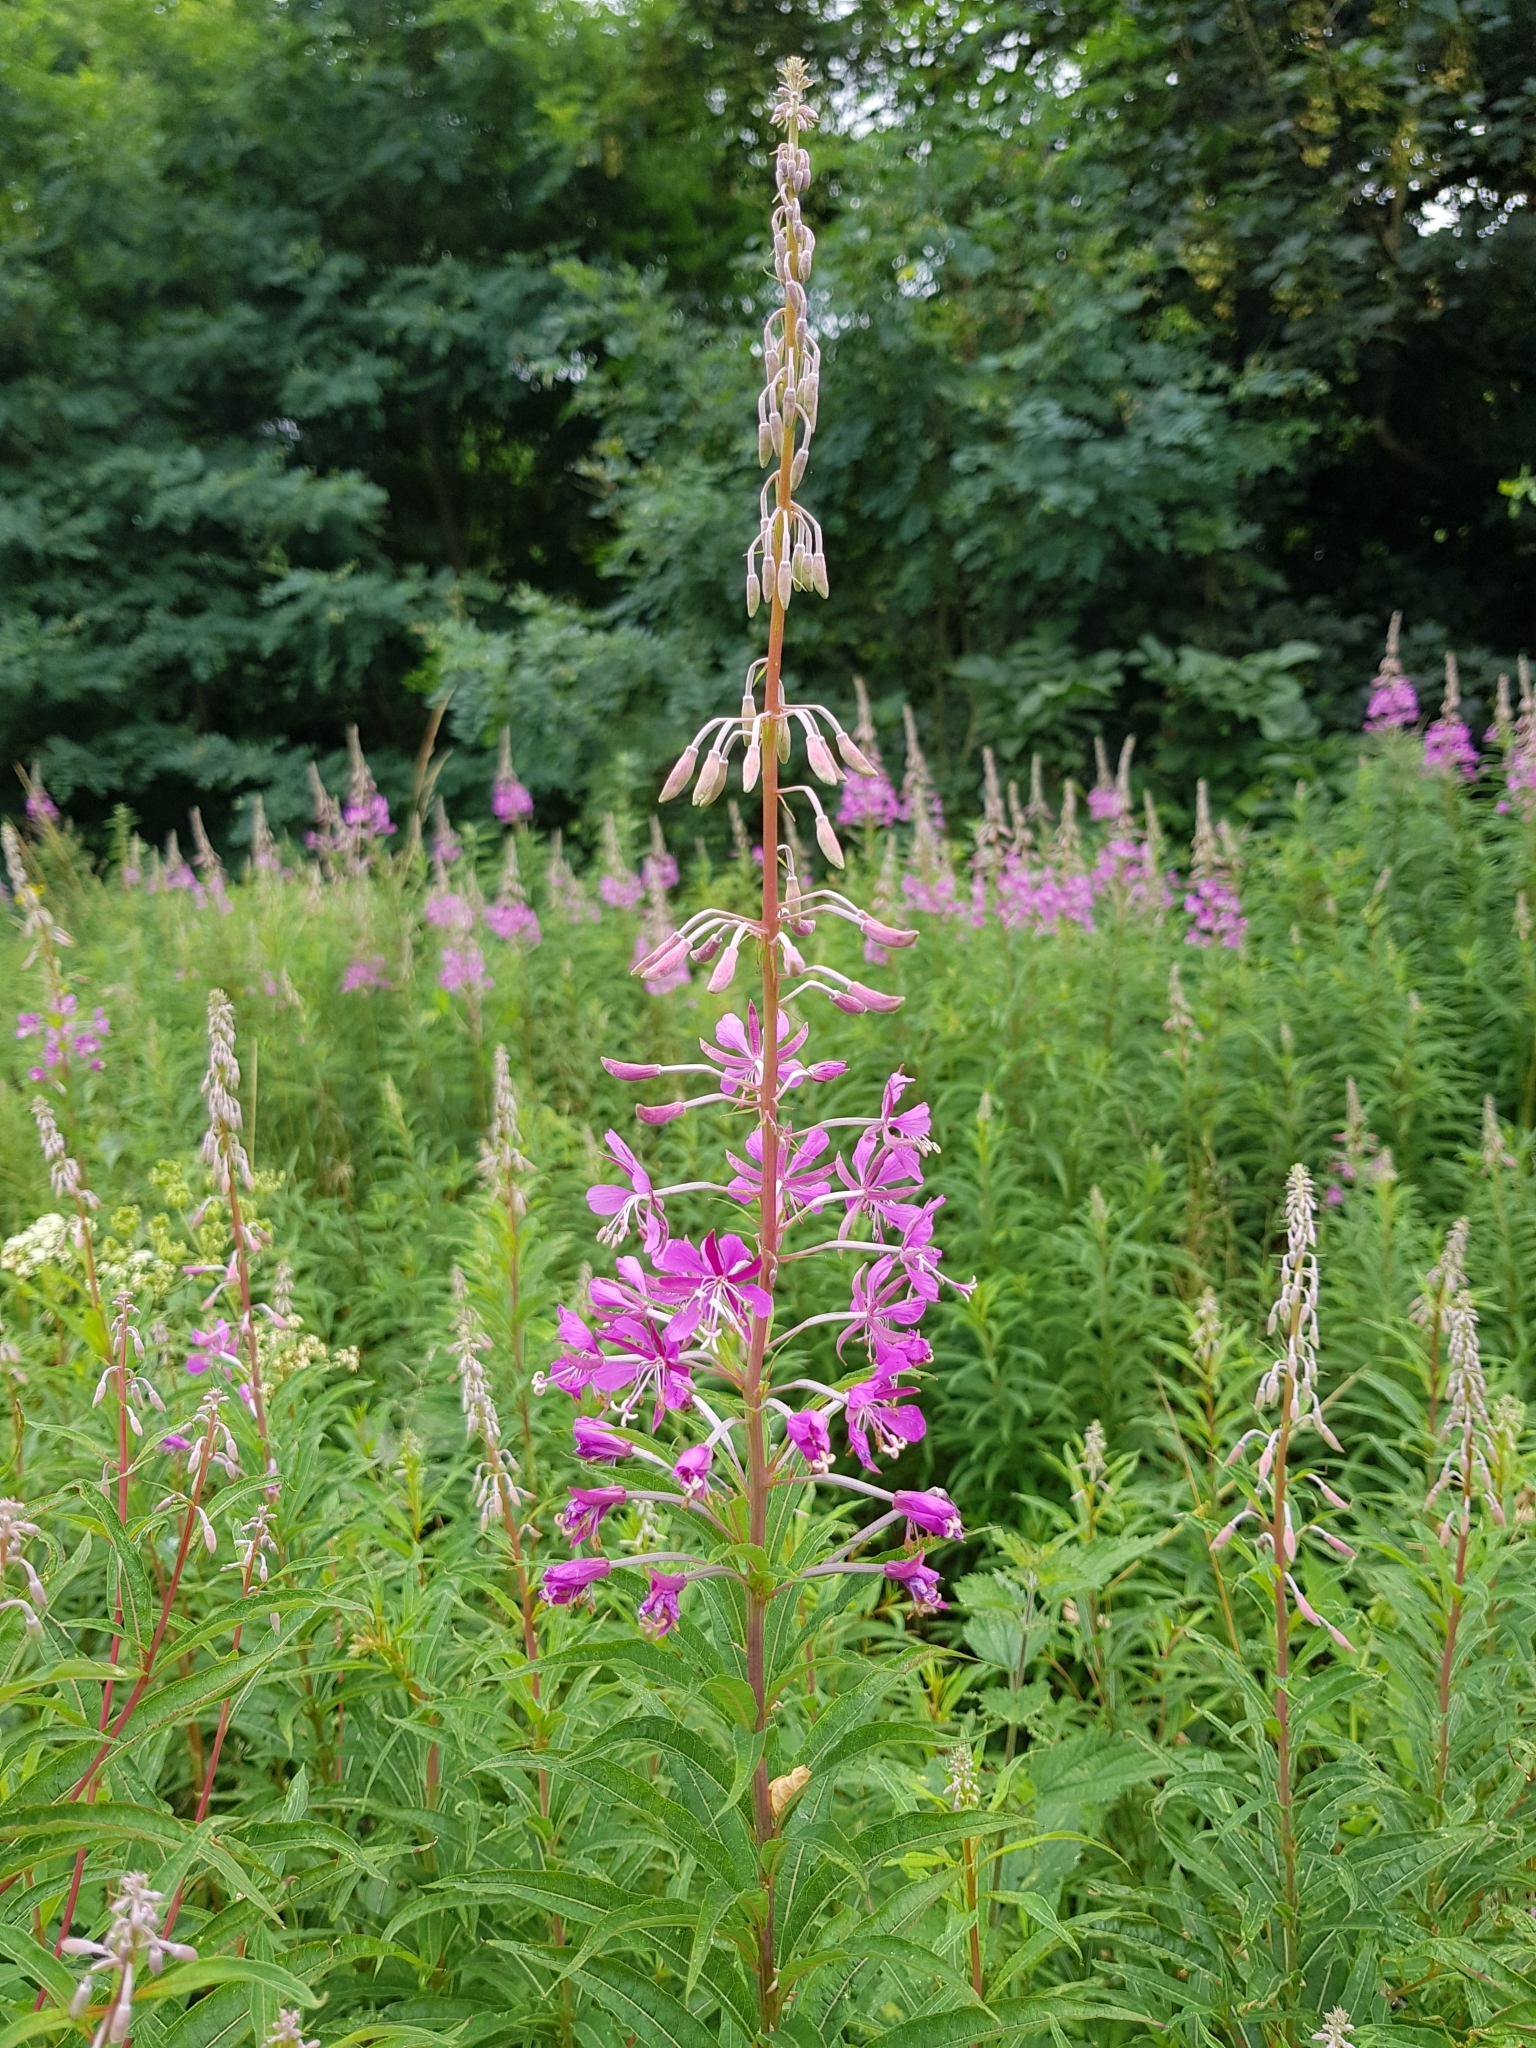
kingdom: Plantae
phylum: Tracheophyta
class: Magnoliopsida
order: Myrtales
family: Onagraceae
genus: Chamaenerion
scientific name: Chamaenerion angustifolium
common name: Fireweed
